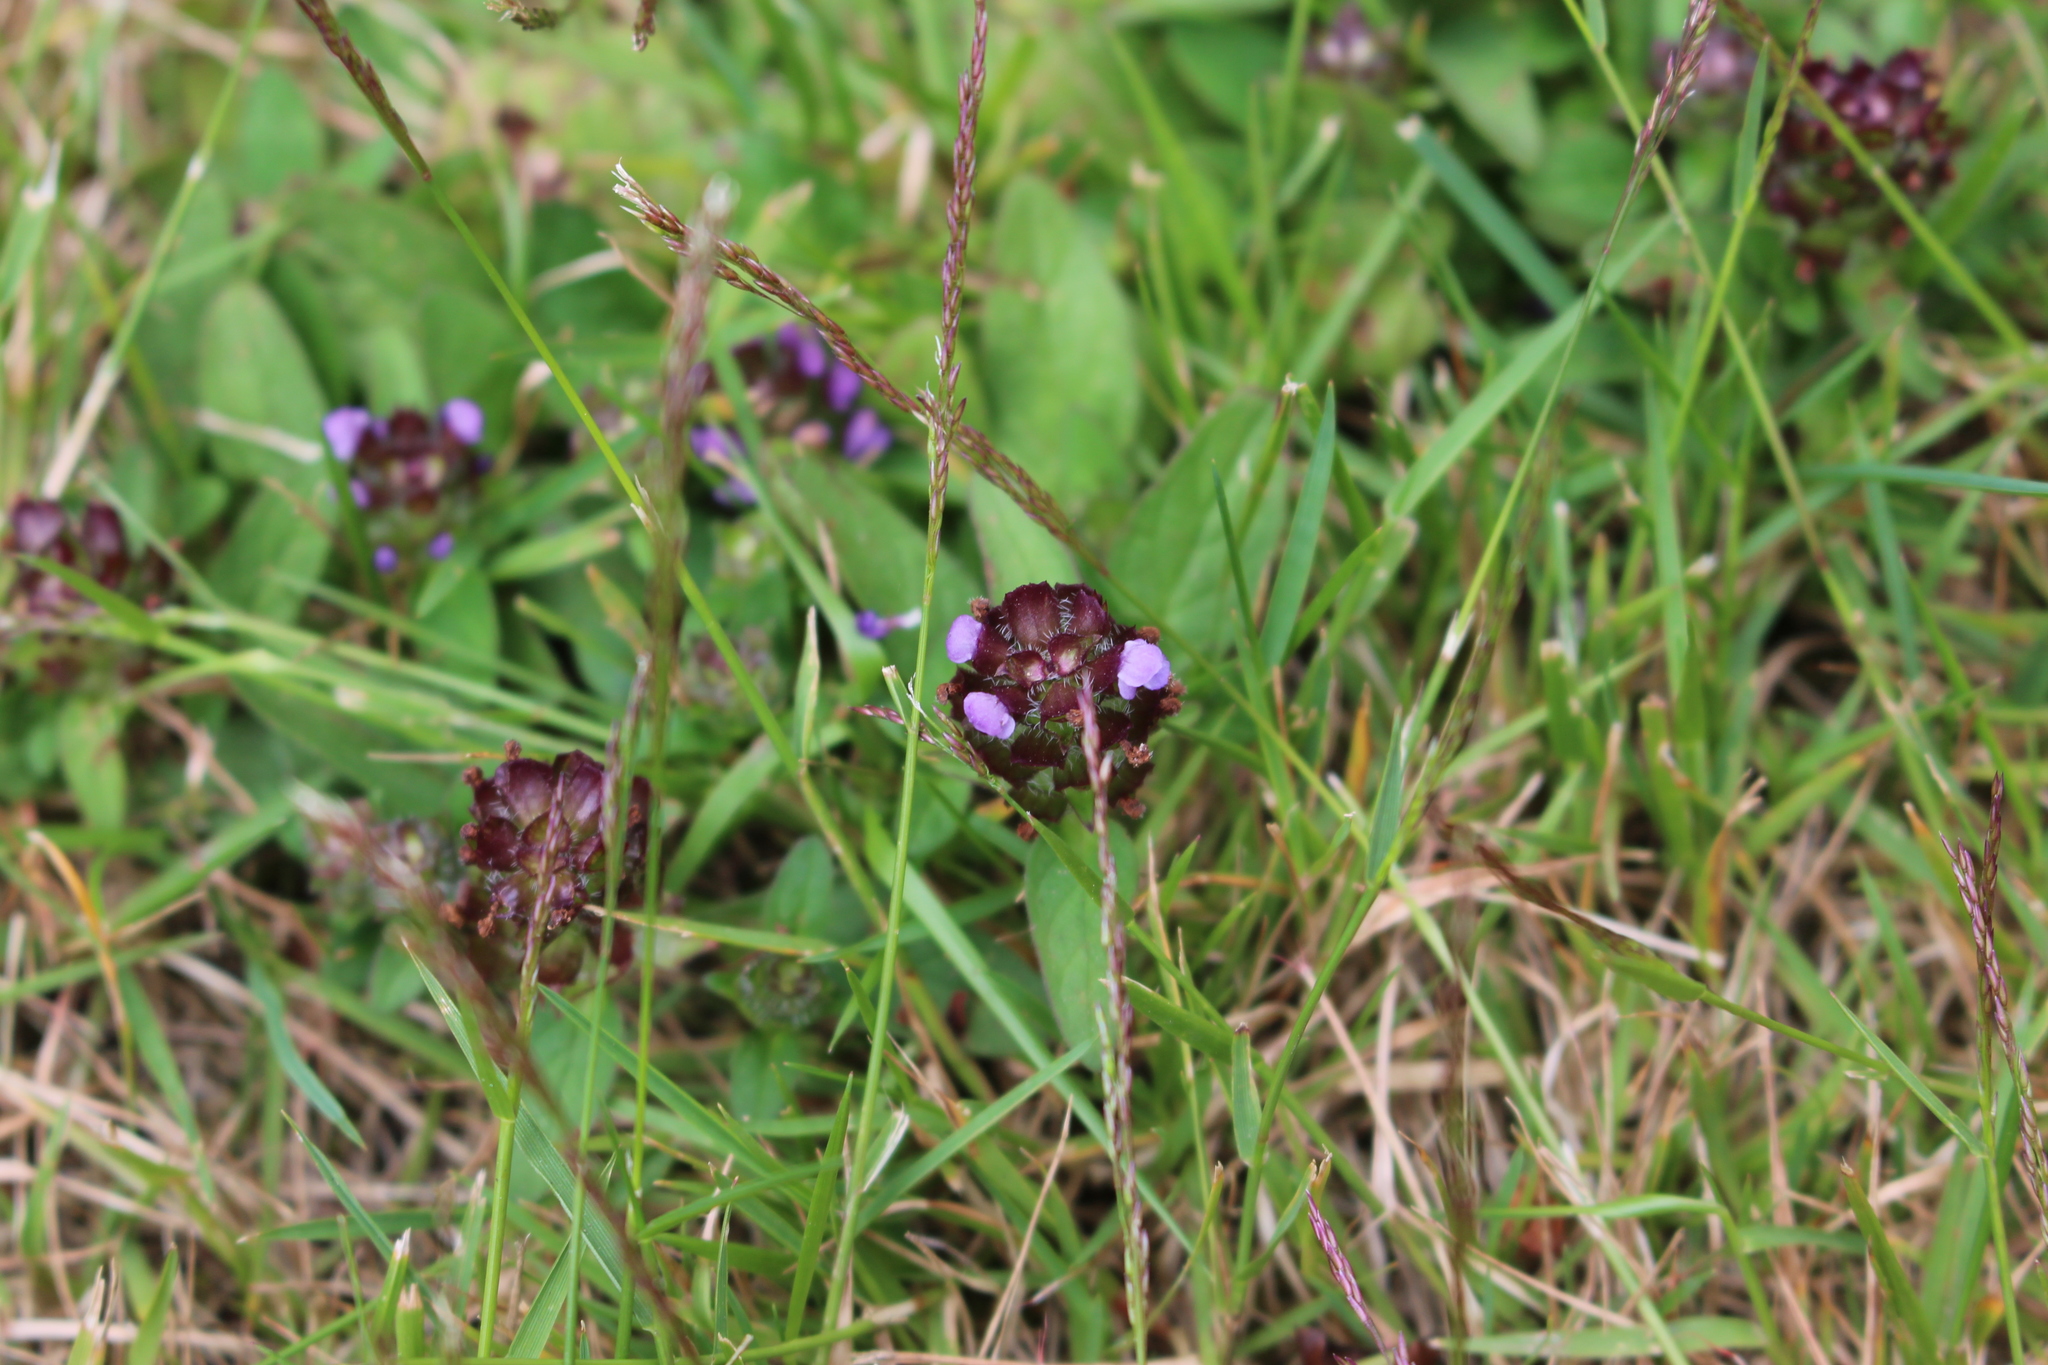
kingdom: Plantae
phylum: Tracheophyta
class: Magnoliopsida
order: Lamiales
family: Lamiaceae
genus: Prunella
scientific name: Prunella vulgaris
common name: Heal-all
